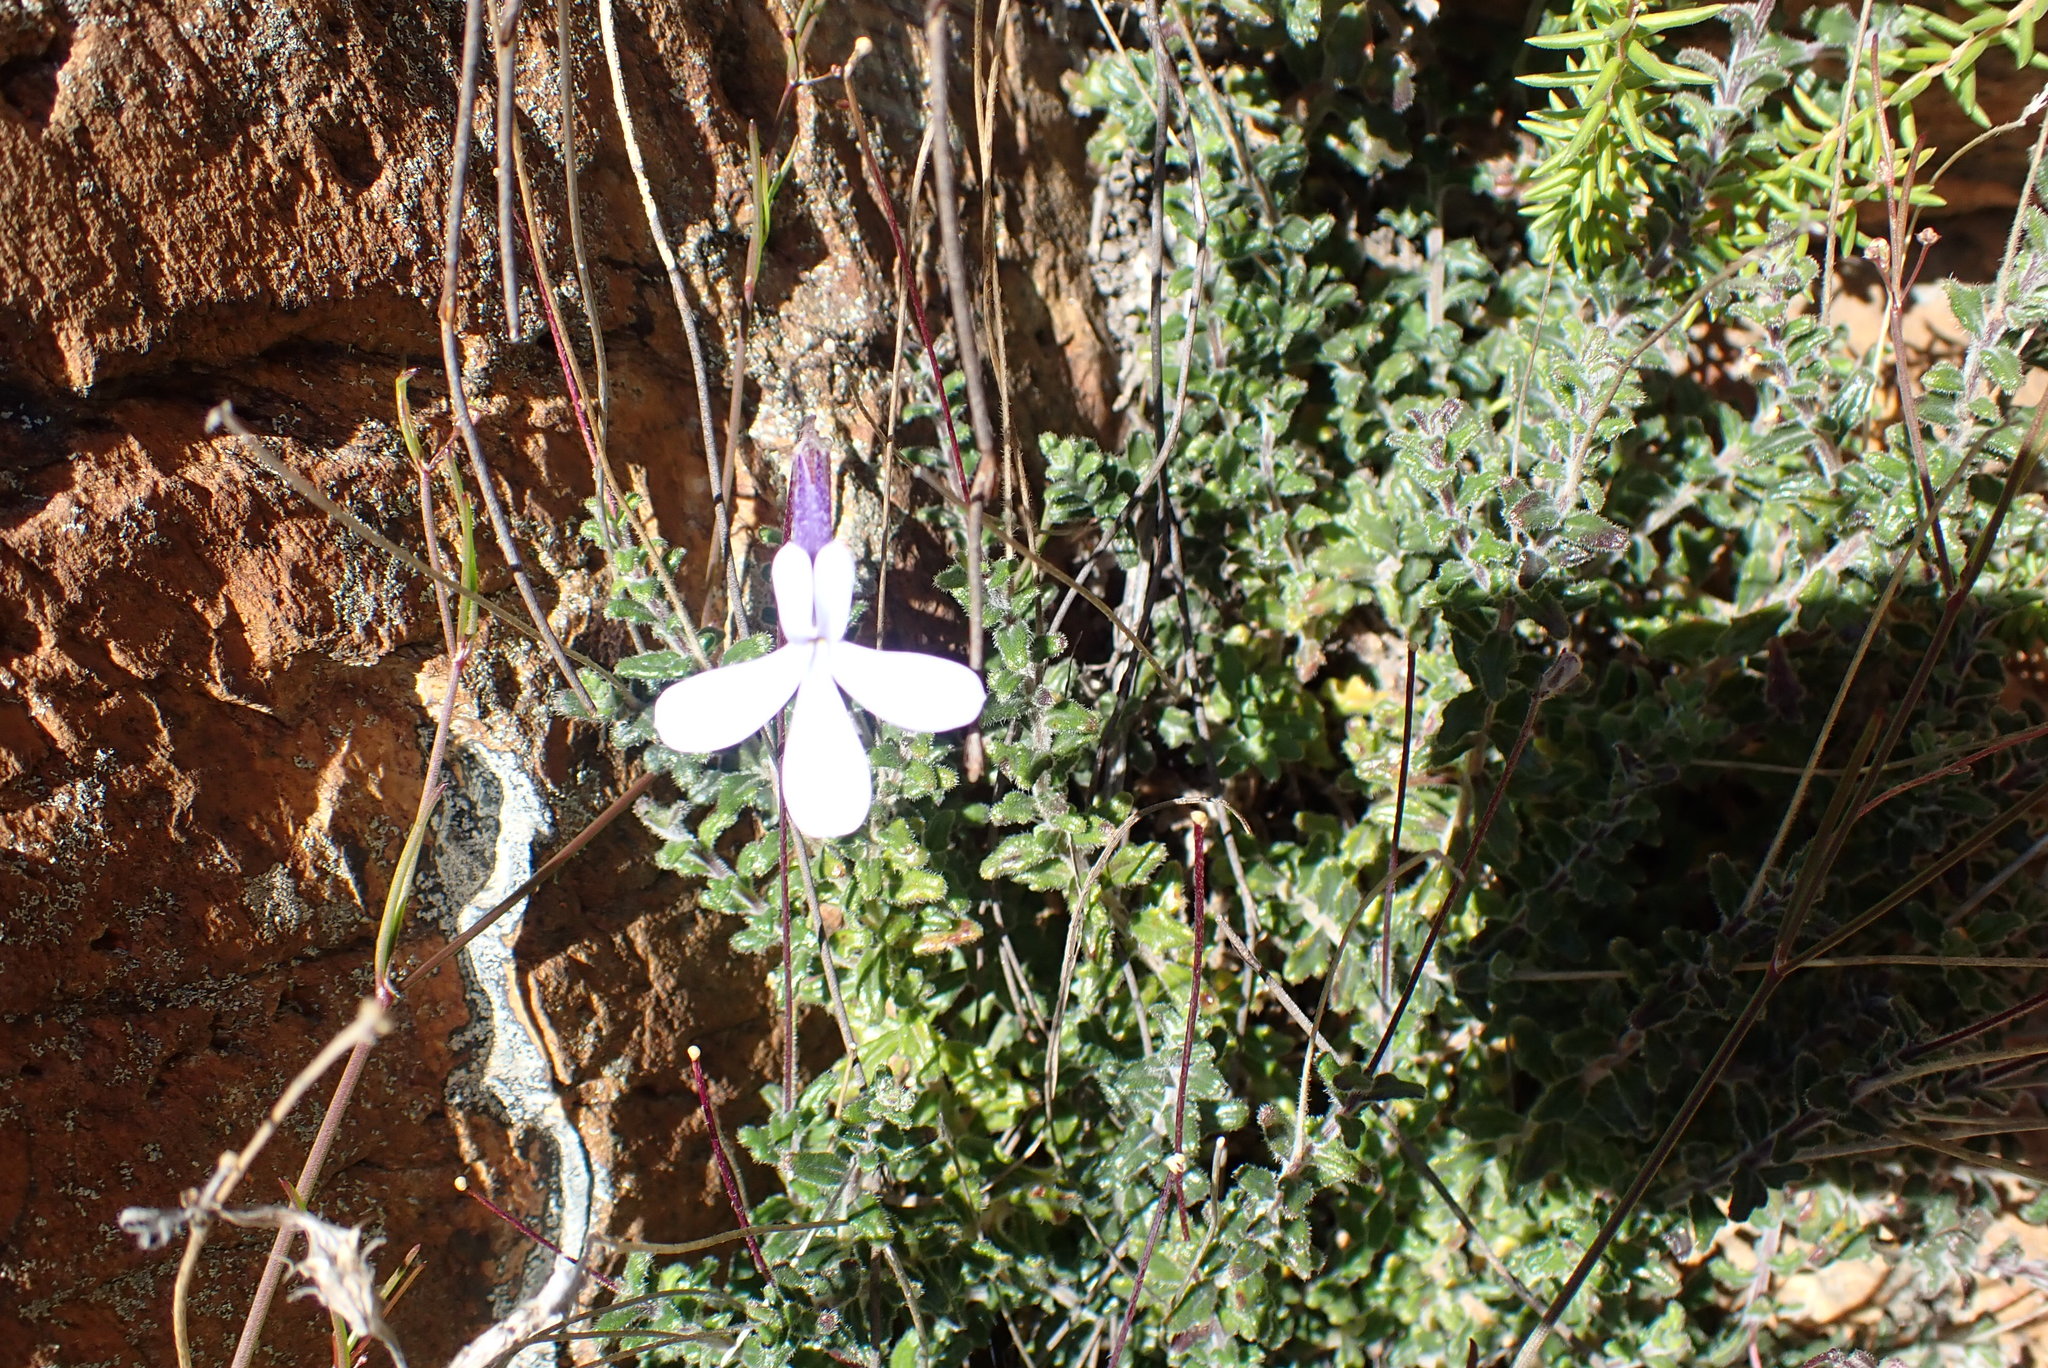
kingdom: Plantae
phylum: Tracheophyta
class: Magnoliopsida
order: Asterales
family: Campanulaceae
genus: Lobelia
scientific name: Lobelia dichroma
